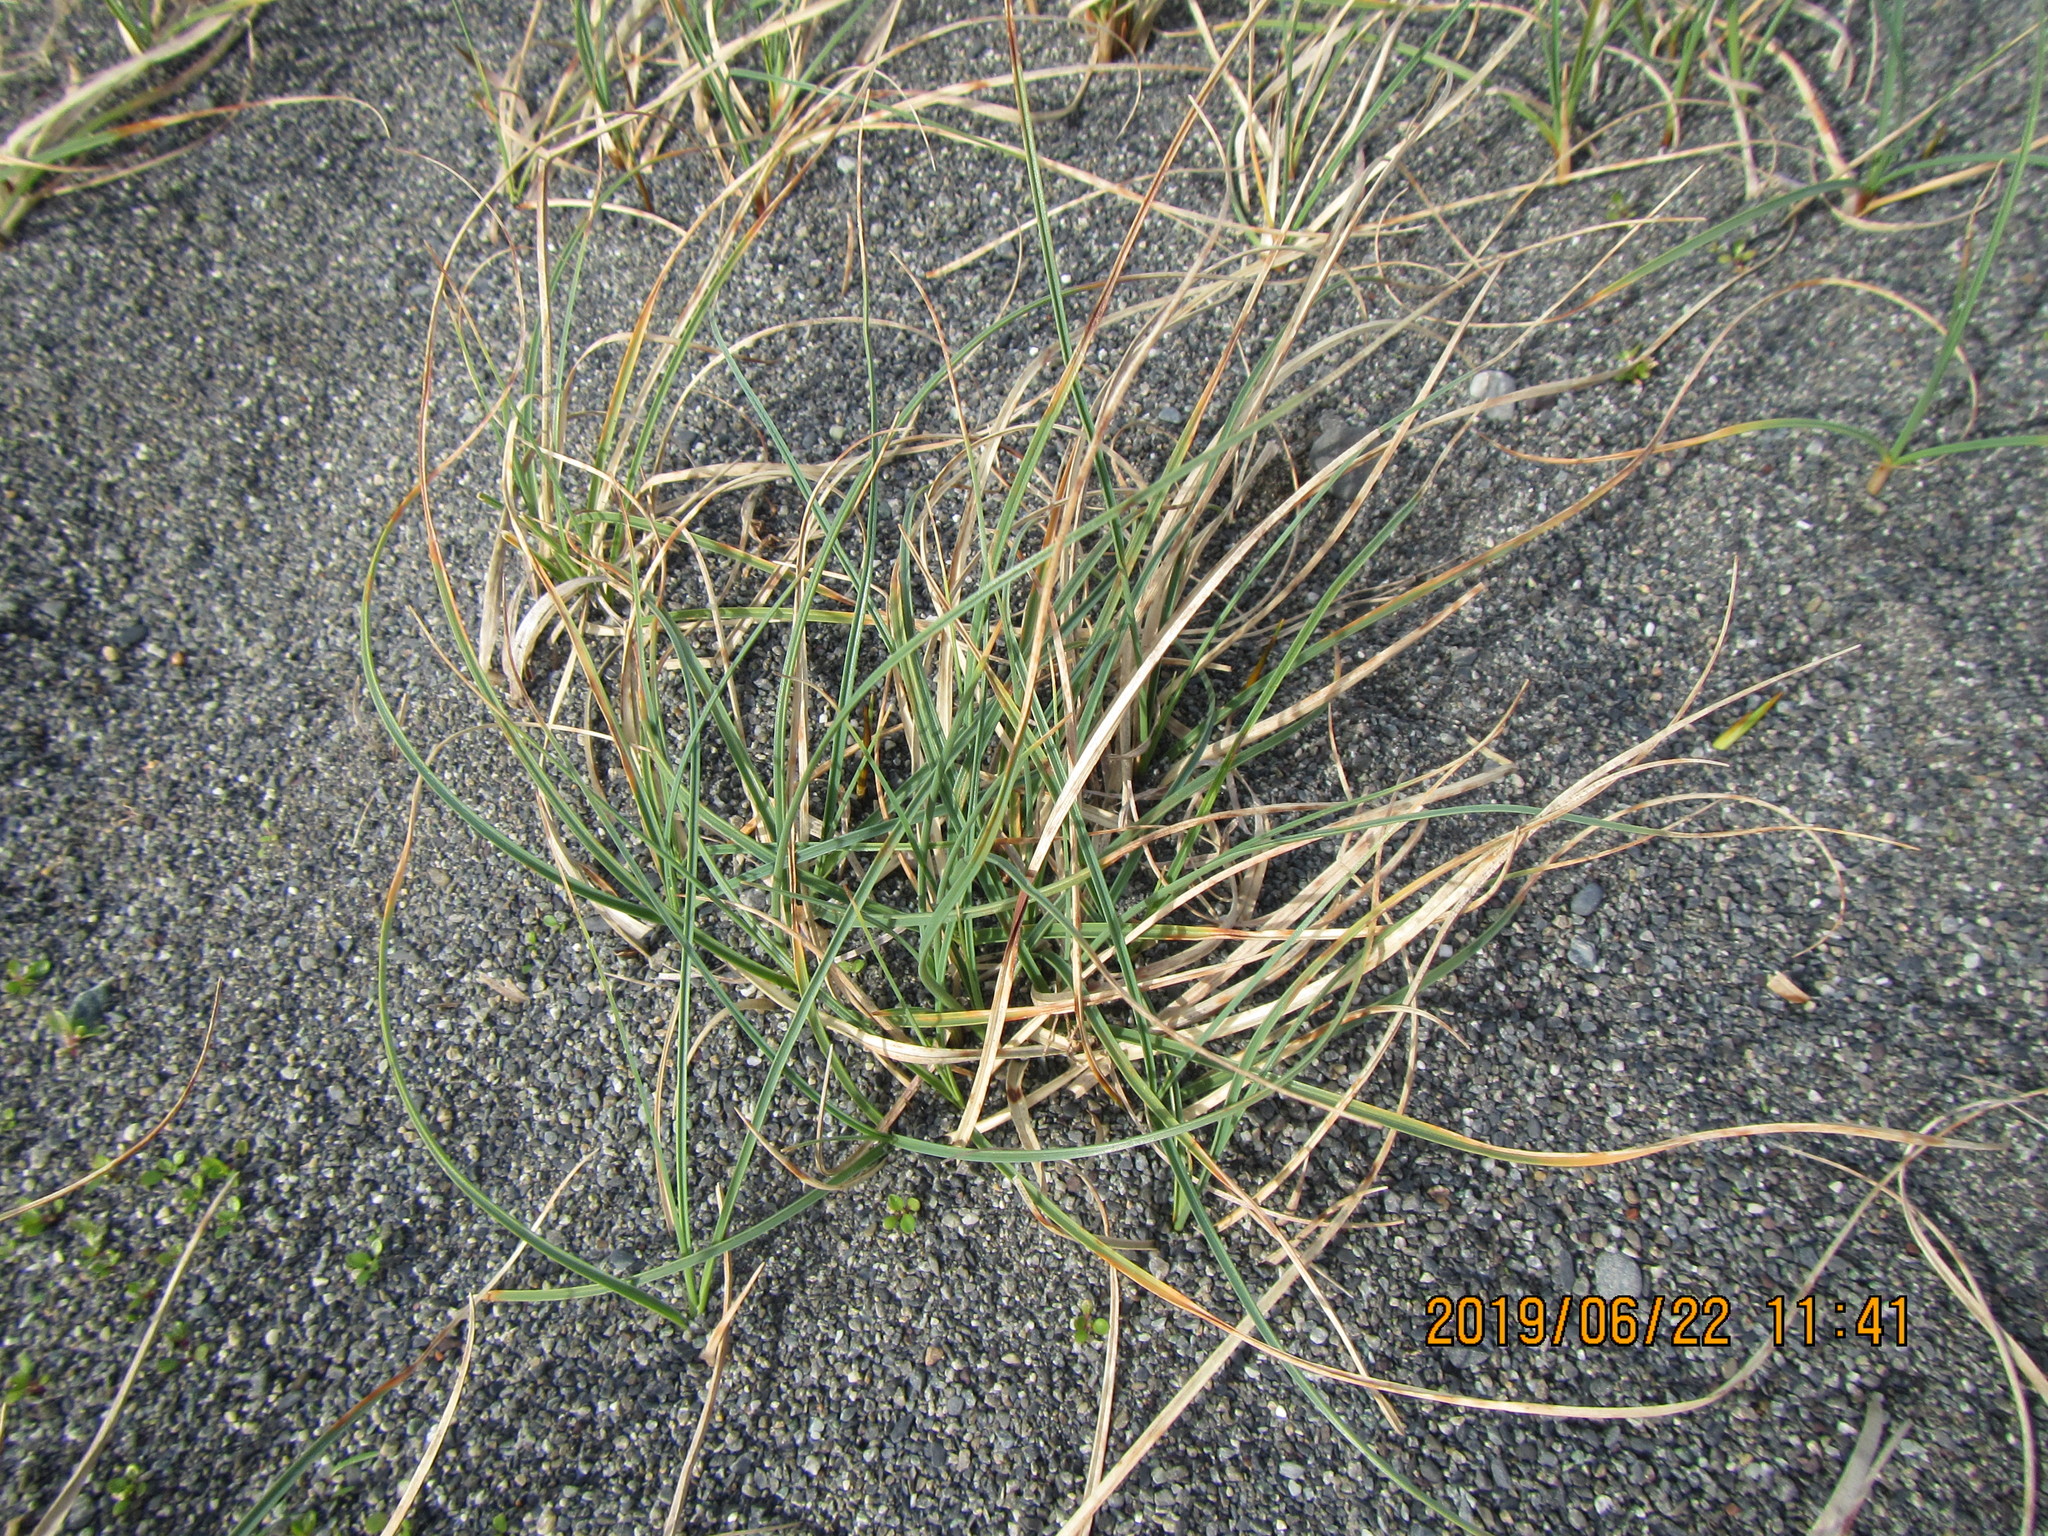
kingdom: Plantae
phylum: Tracheophyta
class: Liliopsida
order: Poales
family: Cyperaceae
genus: Carex
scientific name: Carex pumila
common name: Dwarf sedge
